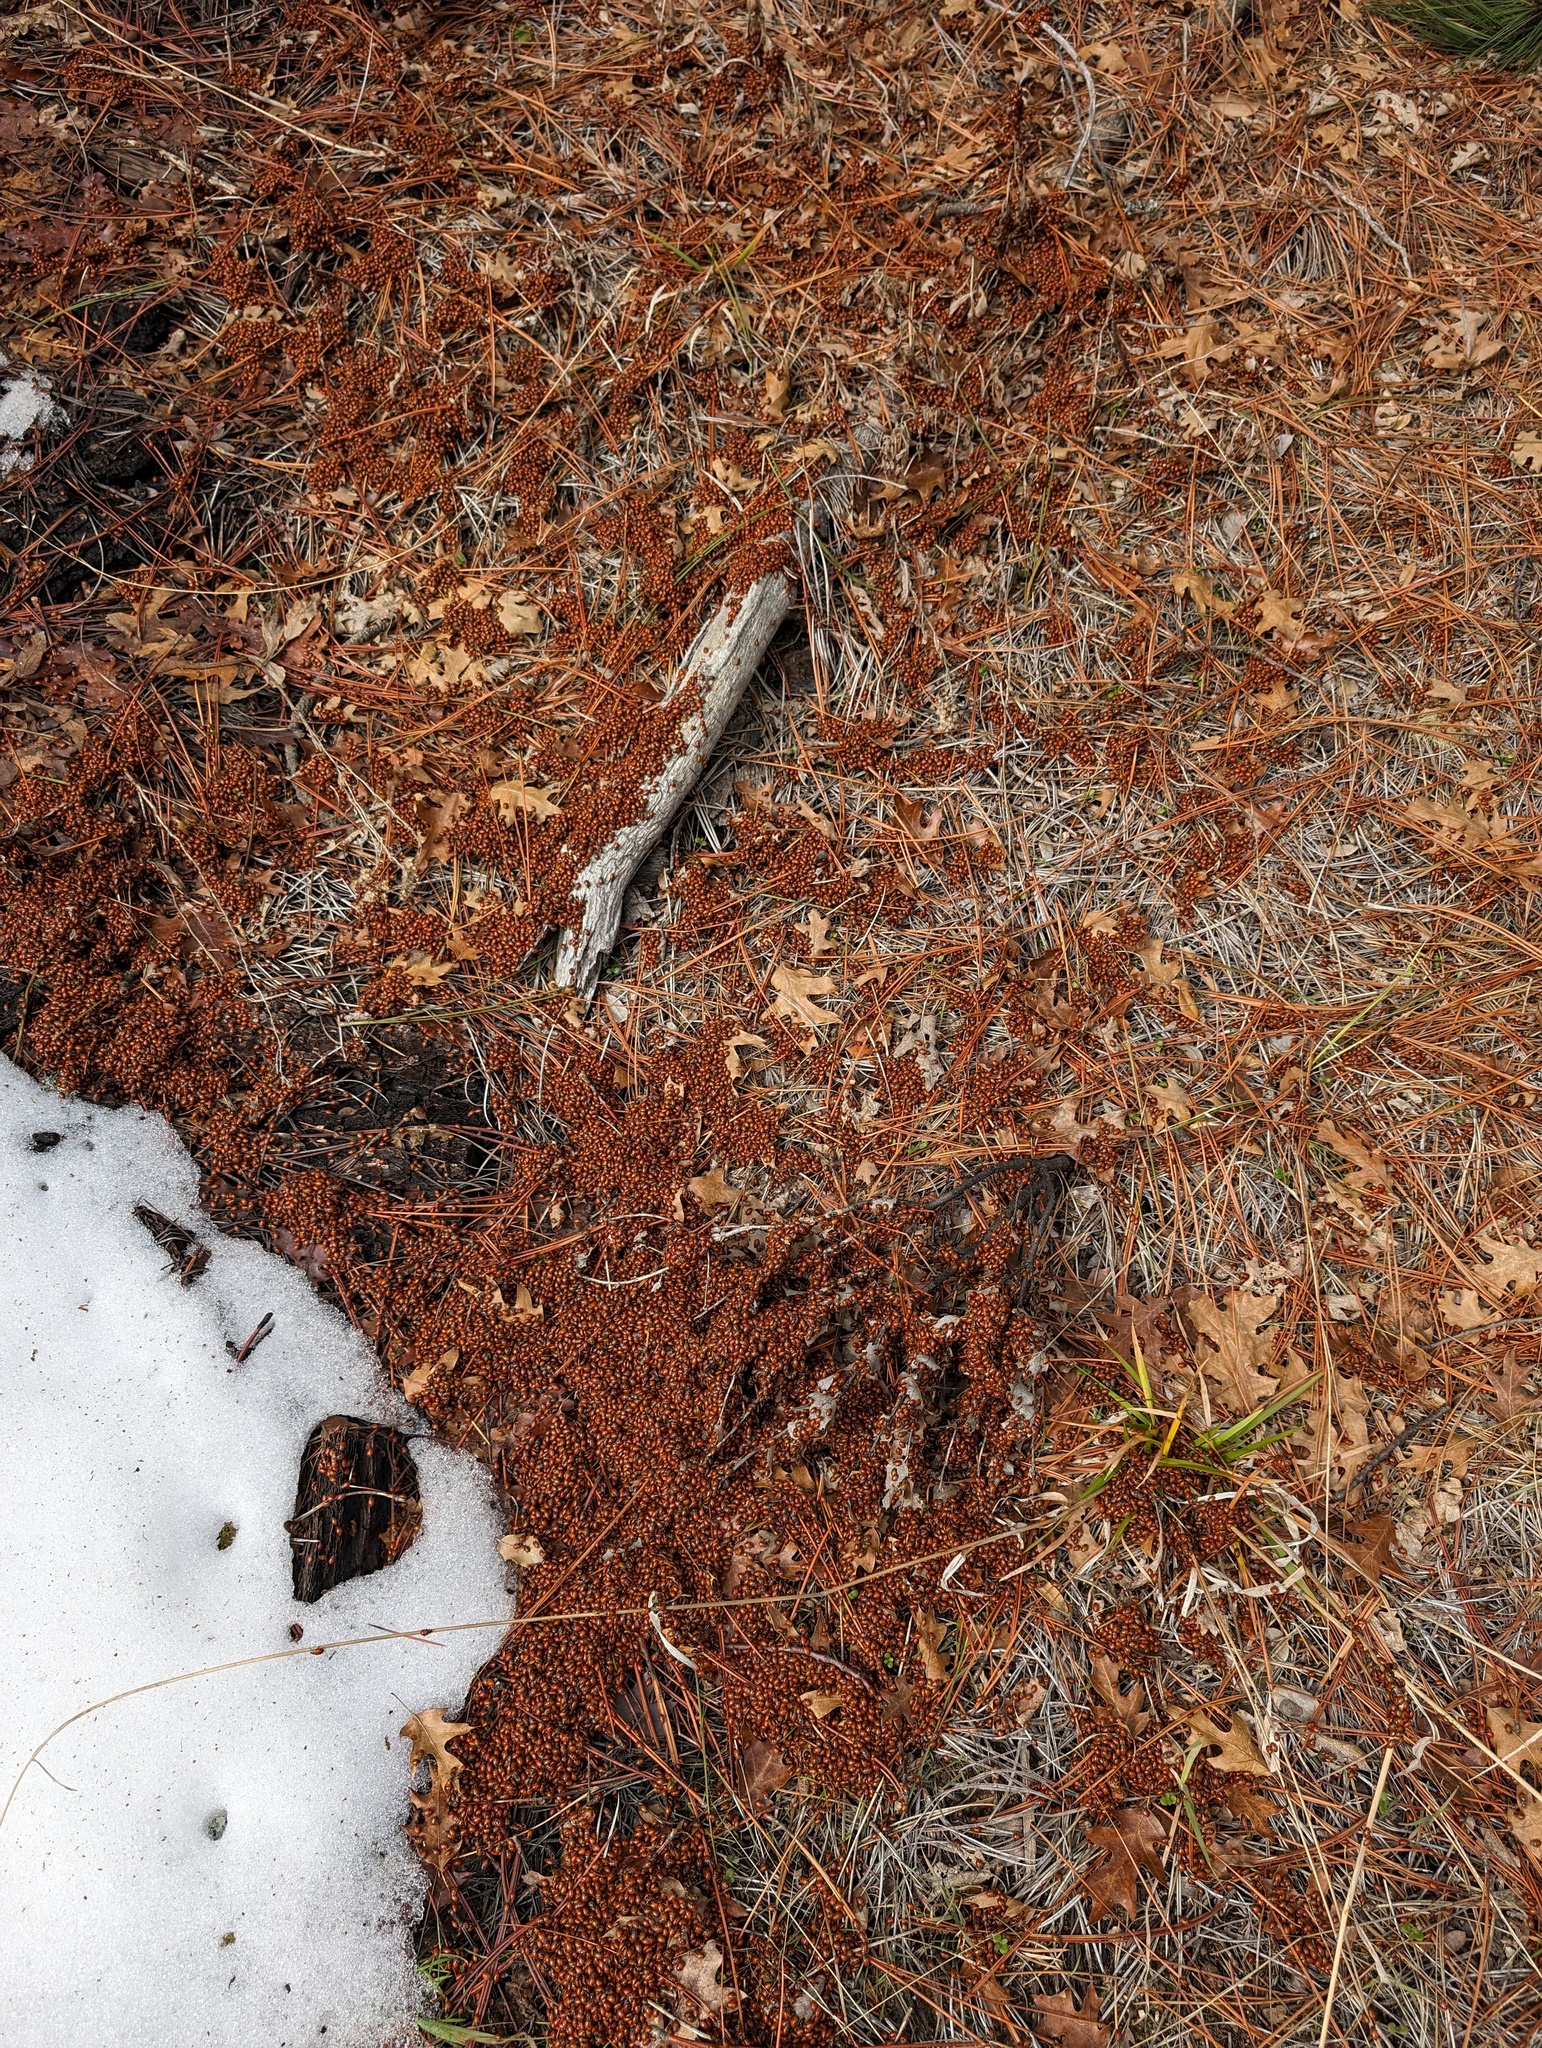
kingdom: Animalia
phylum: Arthropoda
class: Insecta
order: Coleoptera
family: Coccinellidae
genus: Hippodamia
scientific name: Hippodamia convergens
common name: Convergent lady beetle
